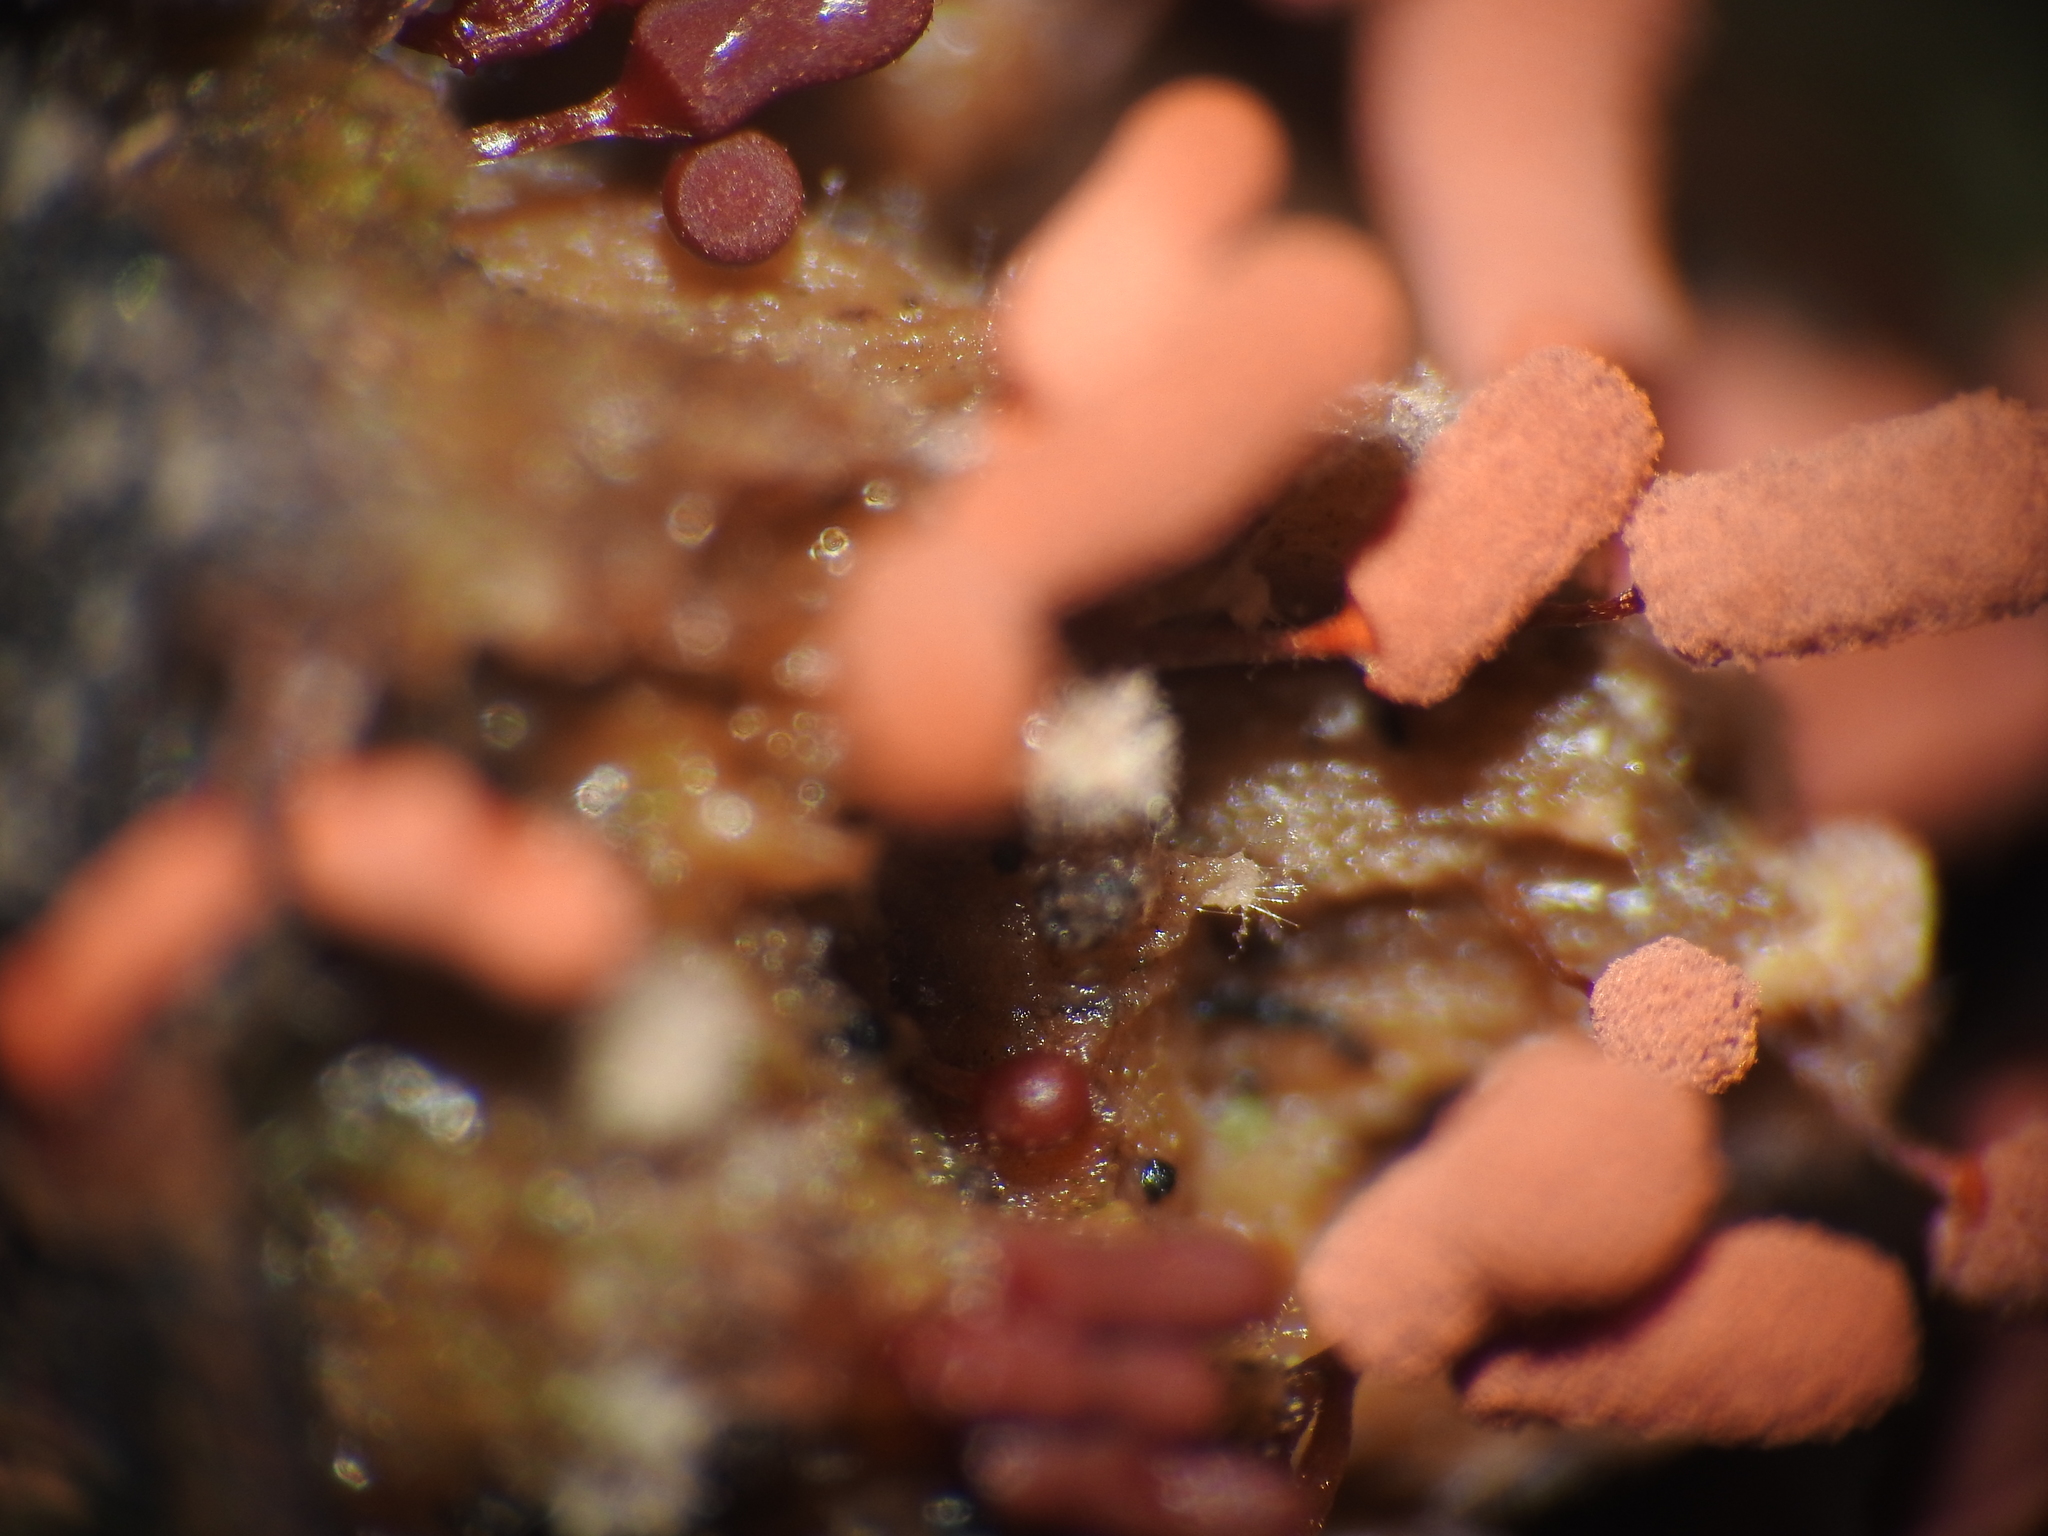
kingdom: Protozoa
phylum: Mycetozoa
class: Myxomycetes
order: Trichiales
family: Arcyriaceae
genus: Arcyria
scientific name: Arcyria denudata
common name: Carnival candy slime mold
